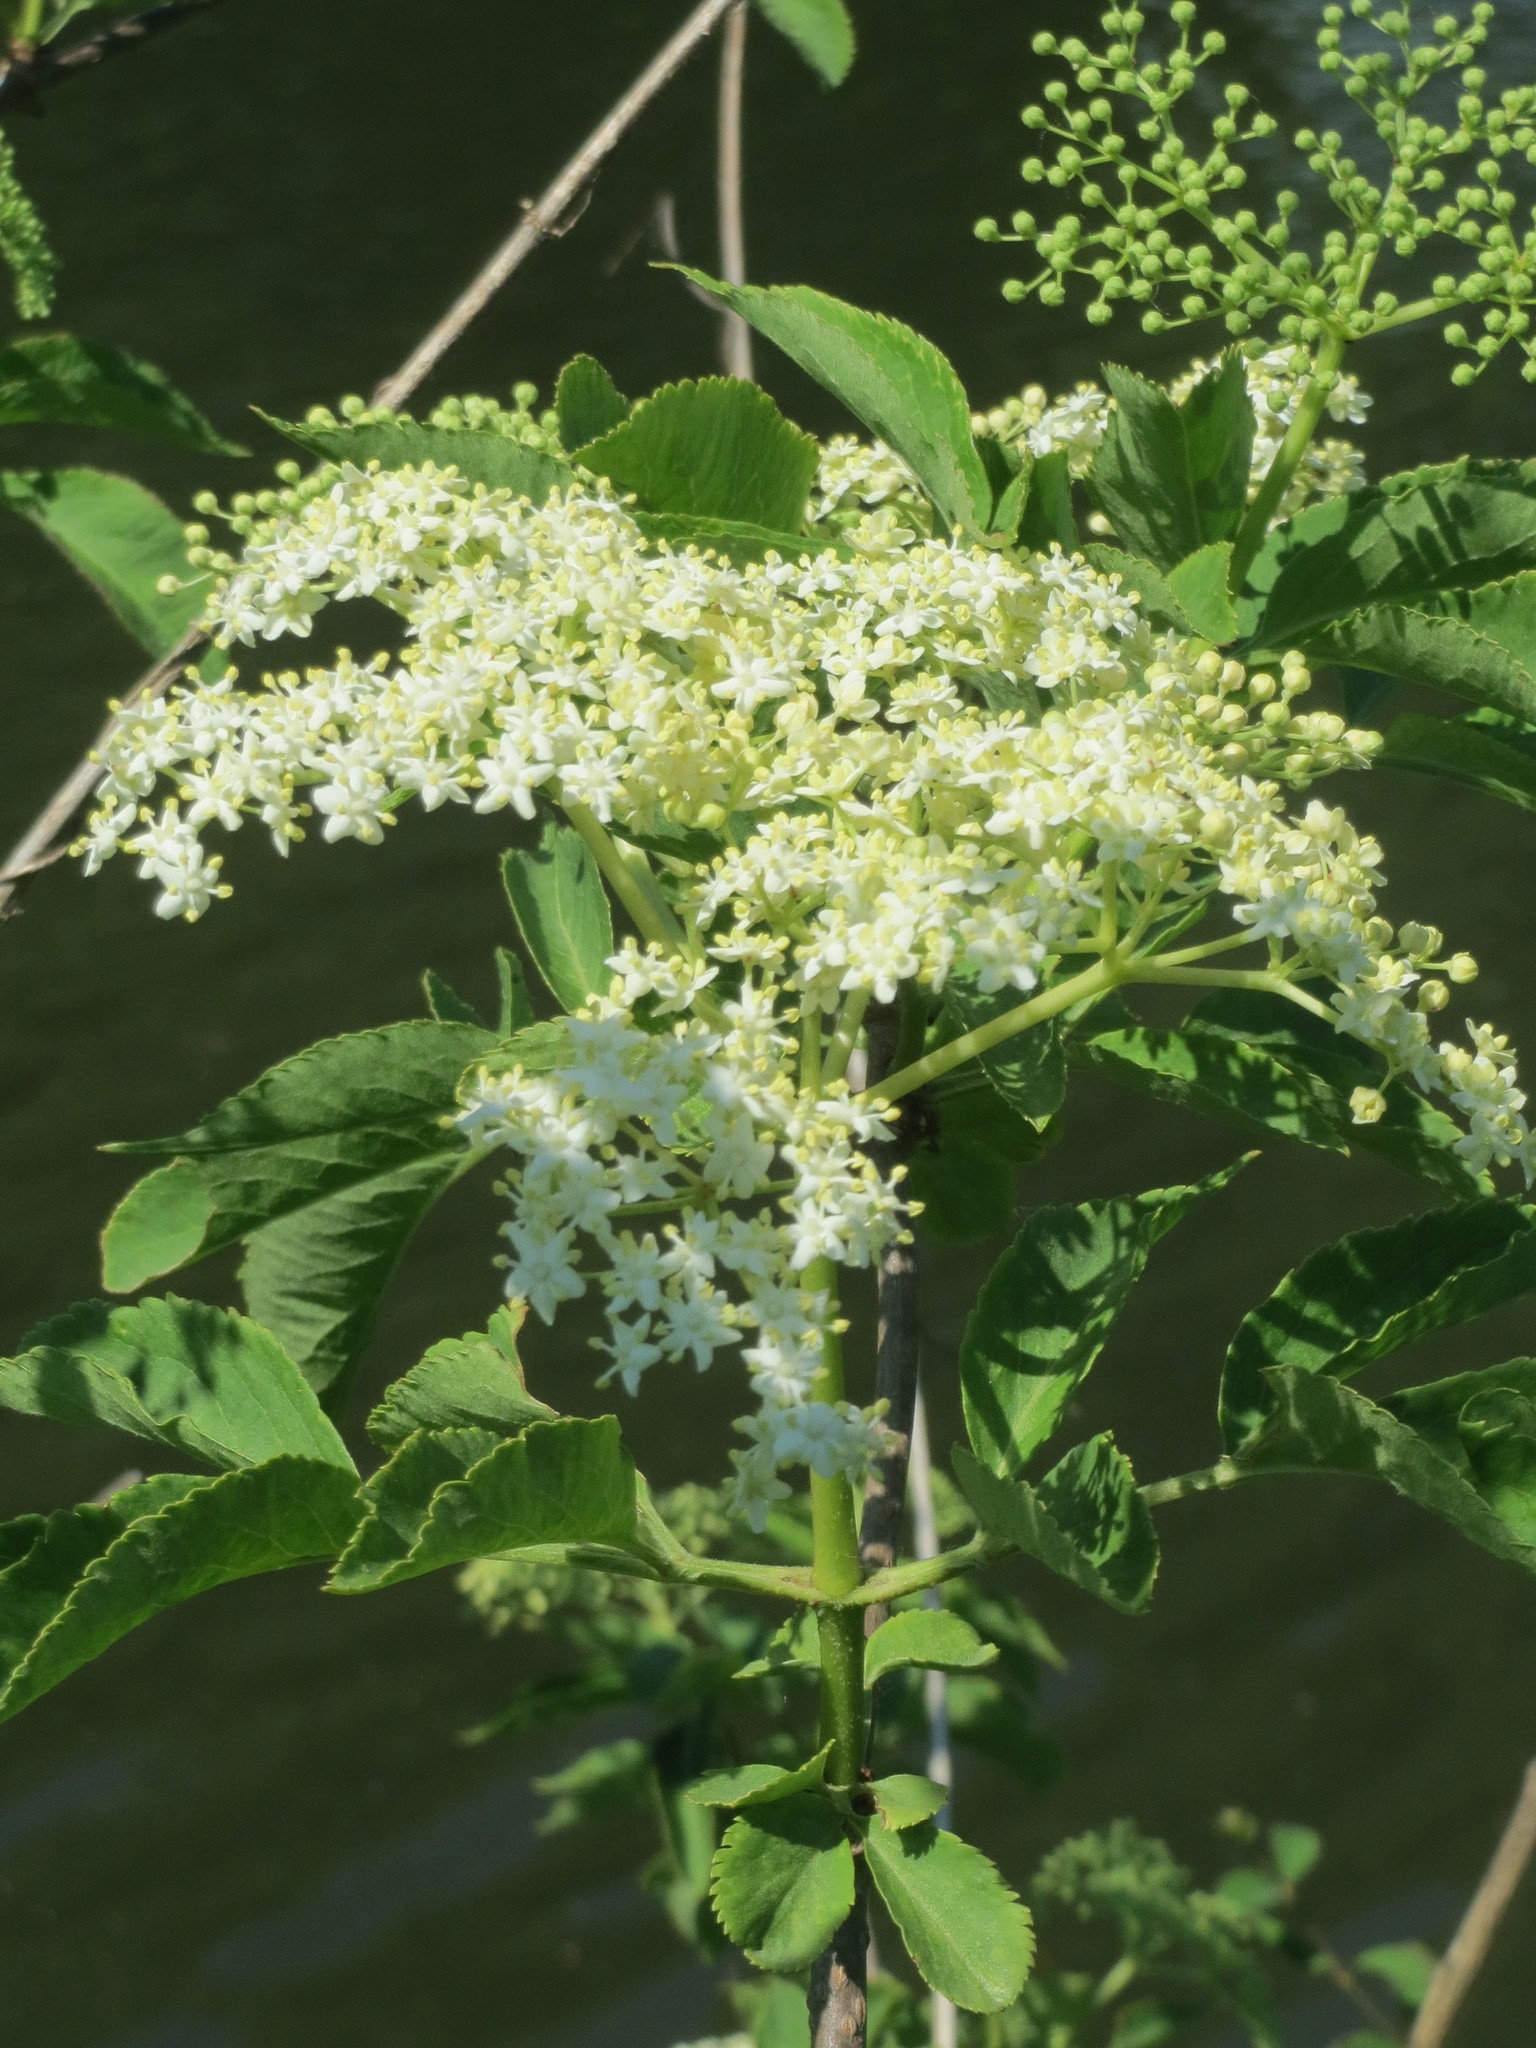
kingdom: Plantae
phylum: Tracheophyta
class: Magnoliopsida
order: Dipsacales
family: Viburnaceae
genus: Sambucus
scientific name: Sambucus nigra
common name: Elder
